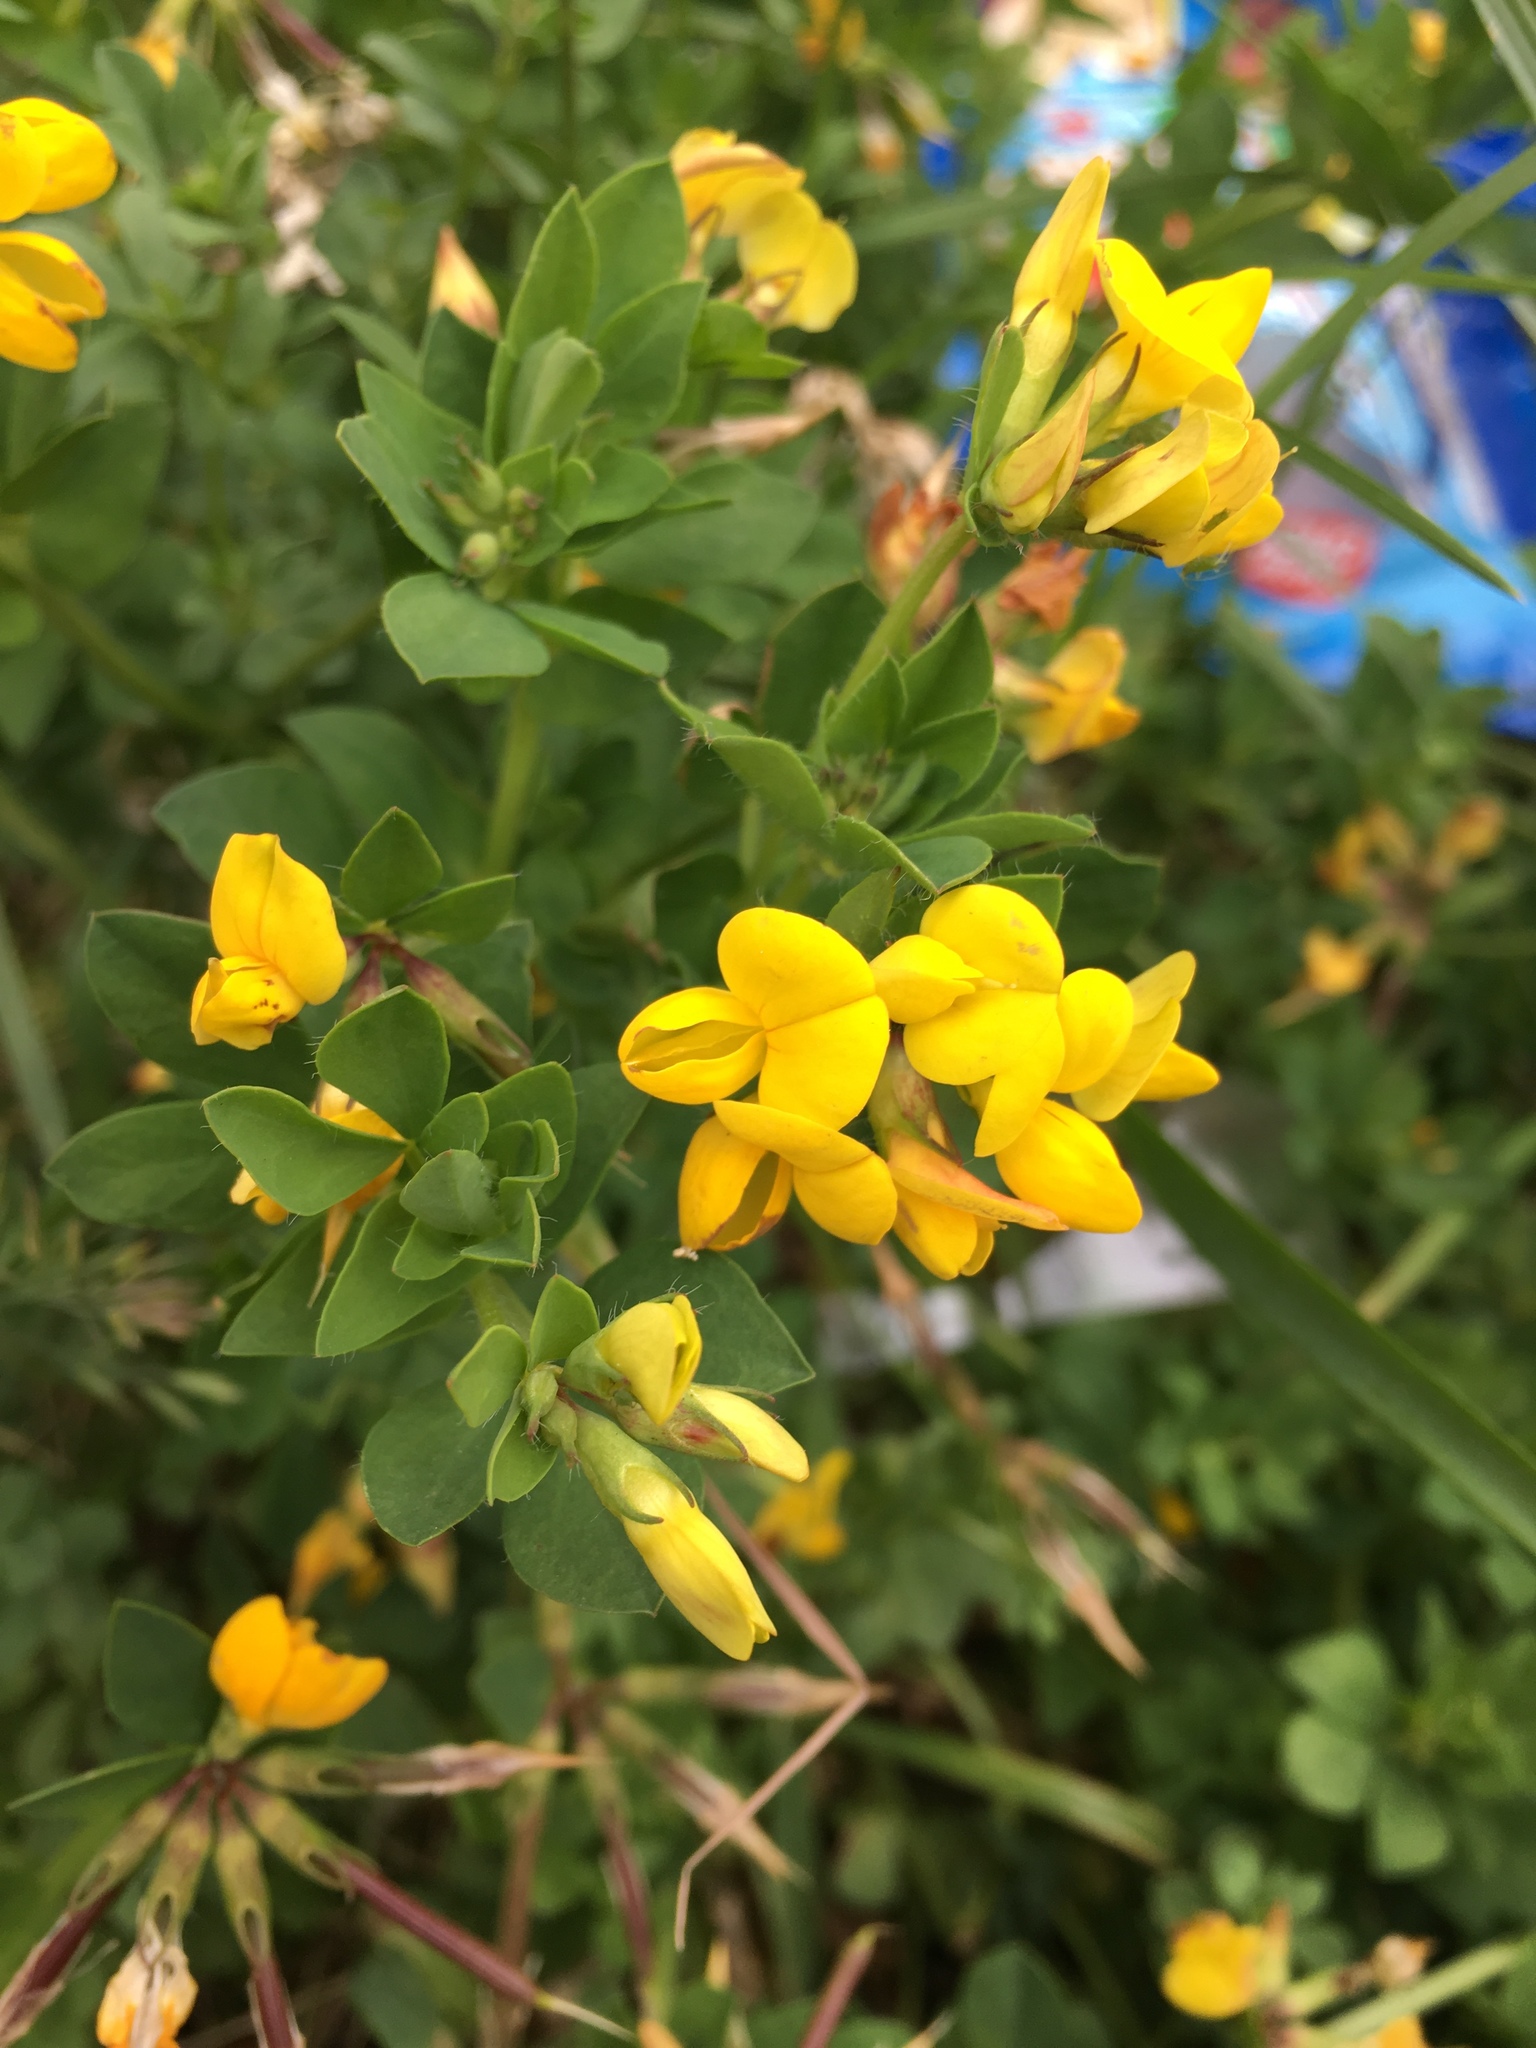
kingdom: Plantae
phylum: Tracheophyta
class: Magnoliopsida
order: Fabales
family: Fabaceae
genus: Lotus
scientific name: Lotus corniculatus
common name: Common bird's-foot-trefoil
